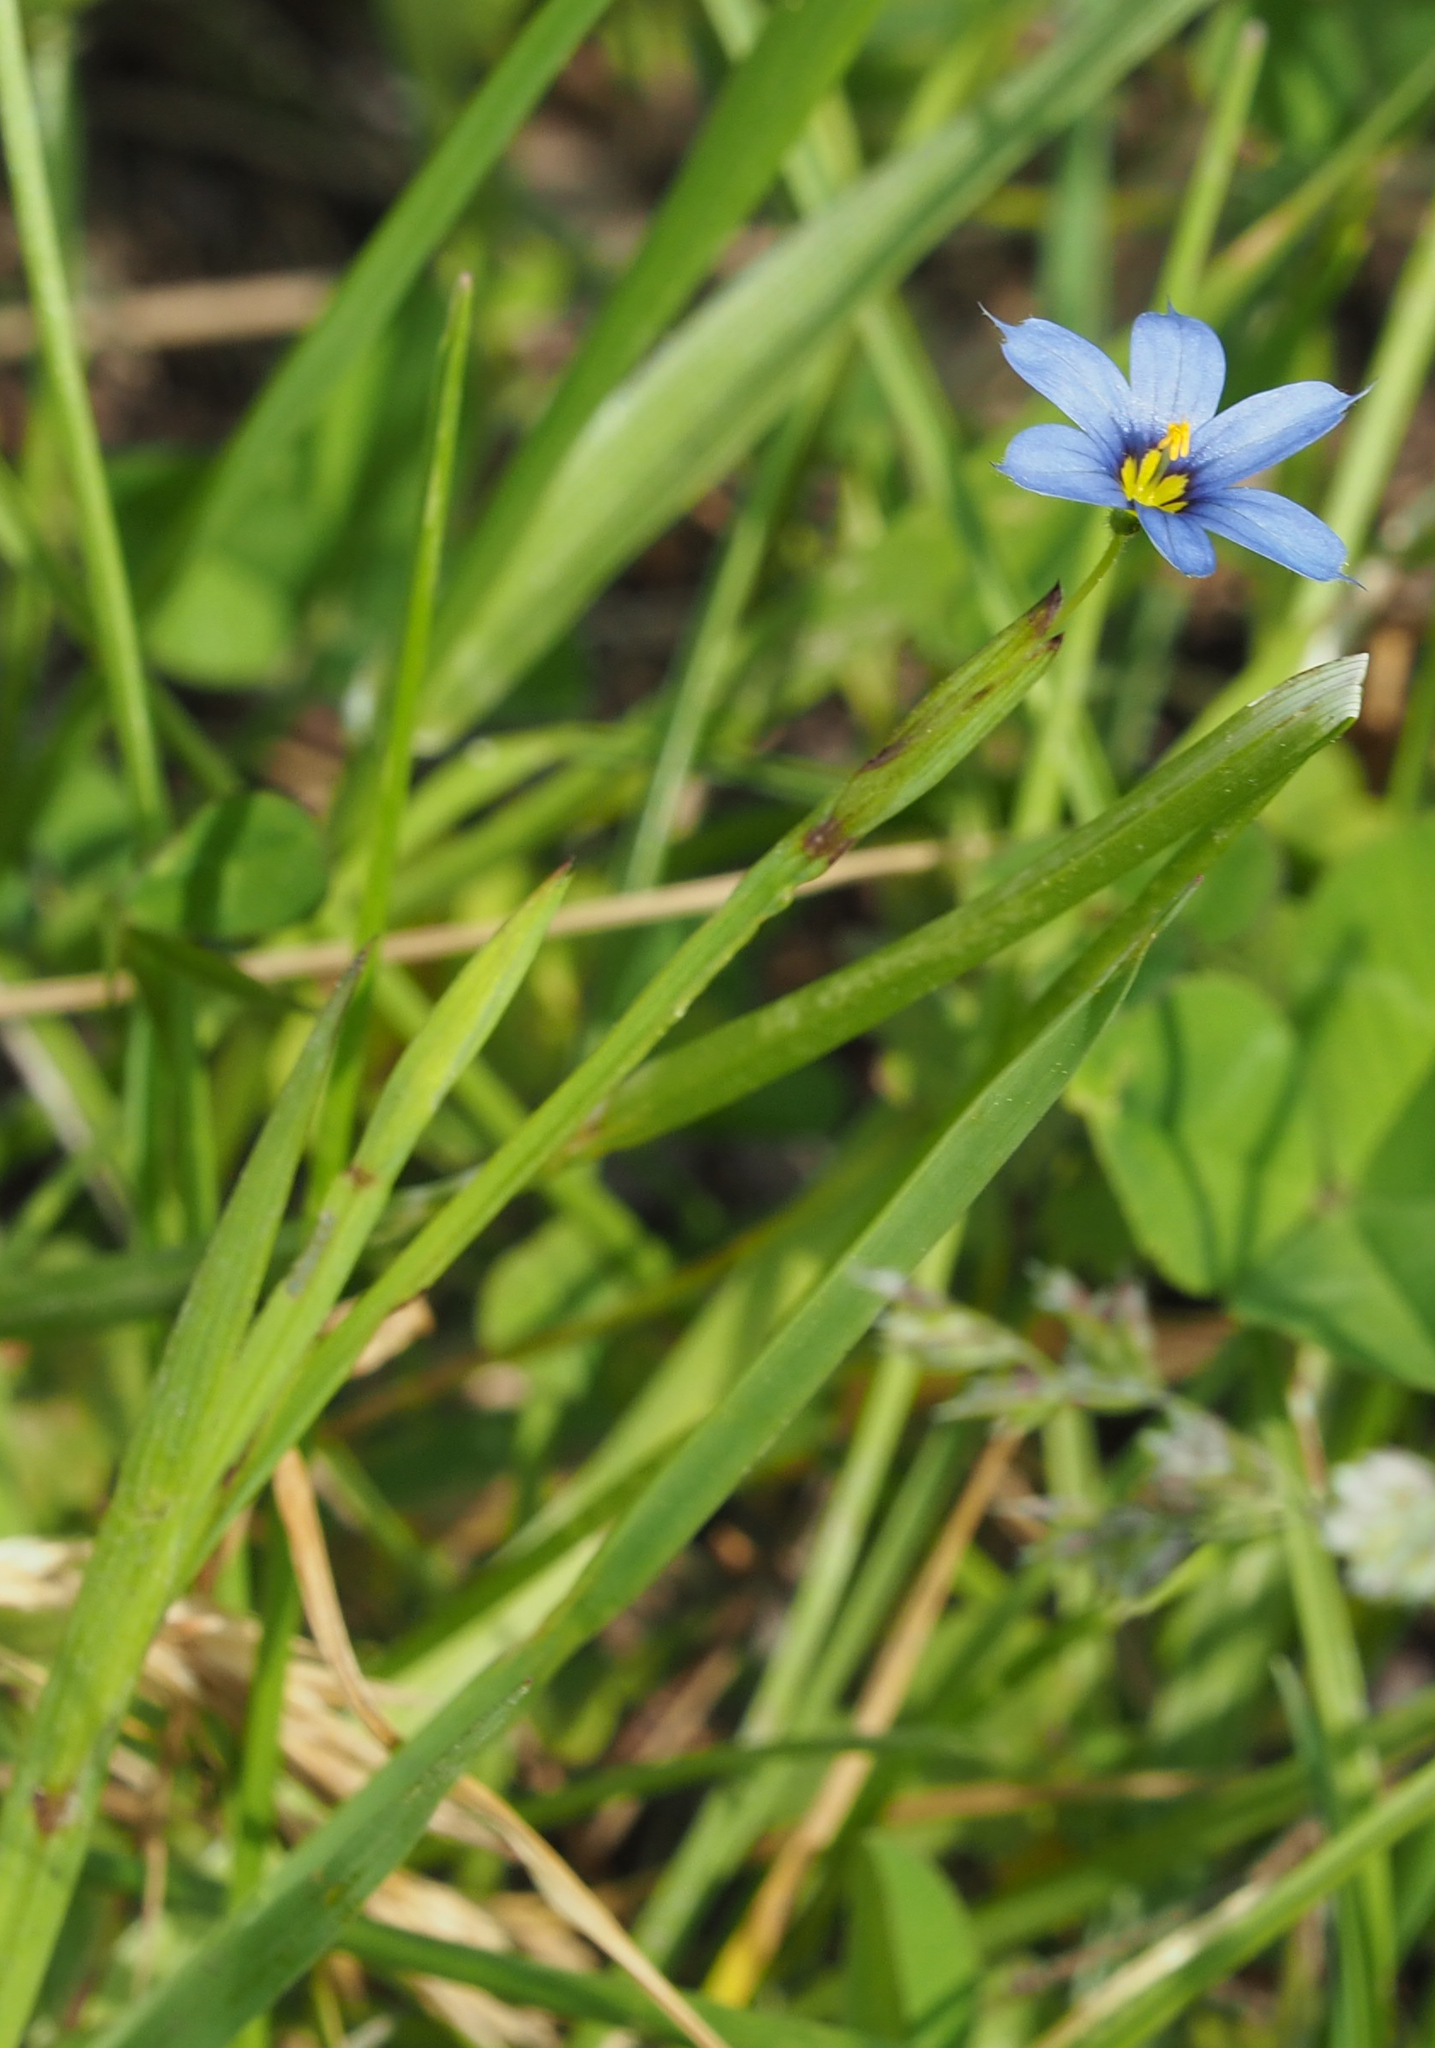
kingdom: Plantae
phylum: Tracheophyta
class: Liliopsida
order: Asparagales
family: Iridaceae
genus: Sisyrinchium
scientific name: Sisyrinchium angustifolium
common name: Narrow-leaf blue-eyed-grass
